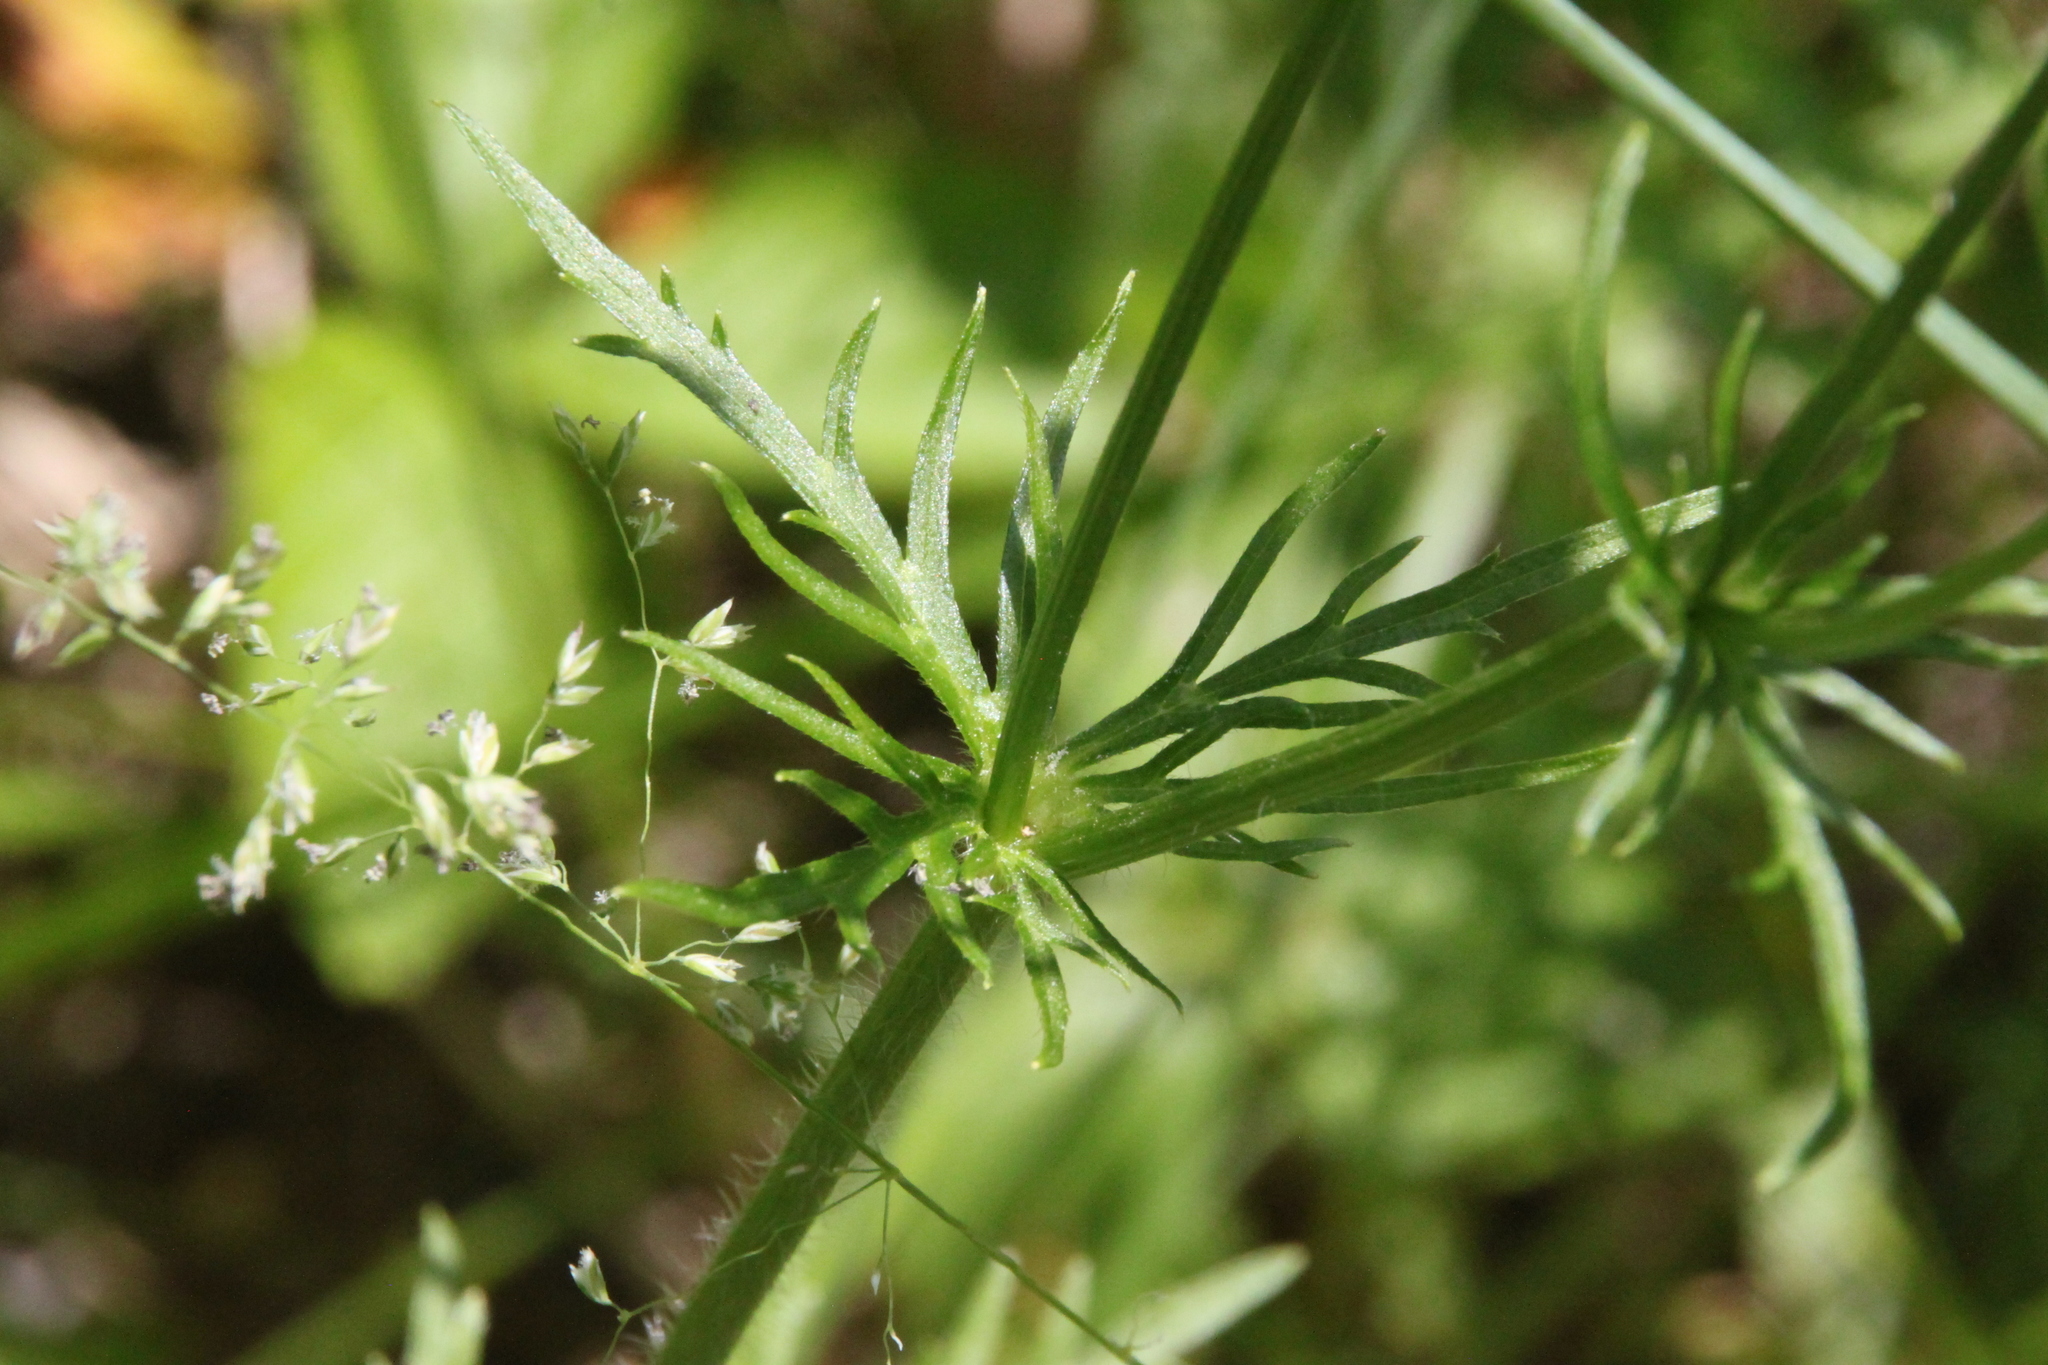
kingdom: Plantae
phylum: Tracheophyta
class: Magnoliopsida
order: Ranunculales
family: Ranunculaceae
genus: Ranunculus
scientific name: Ranunculus polyanthemos
